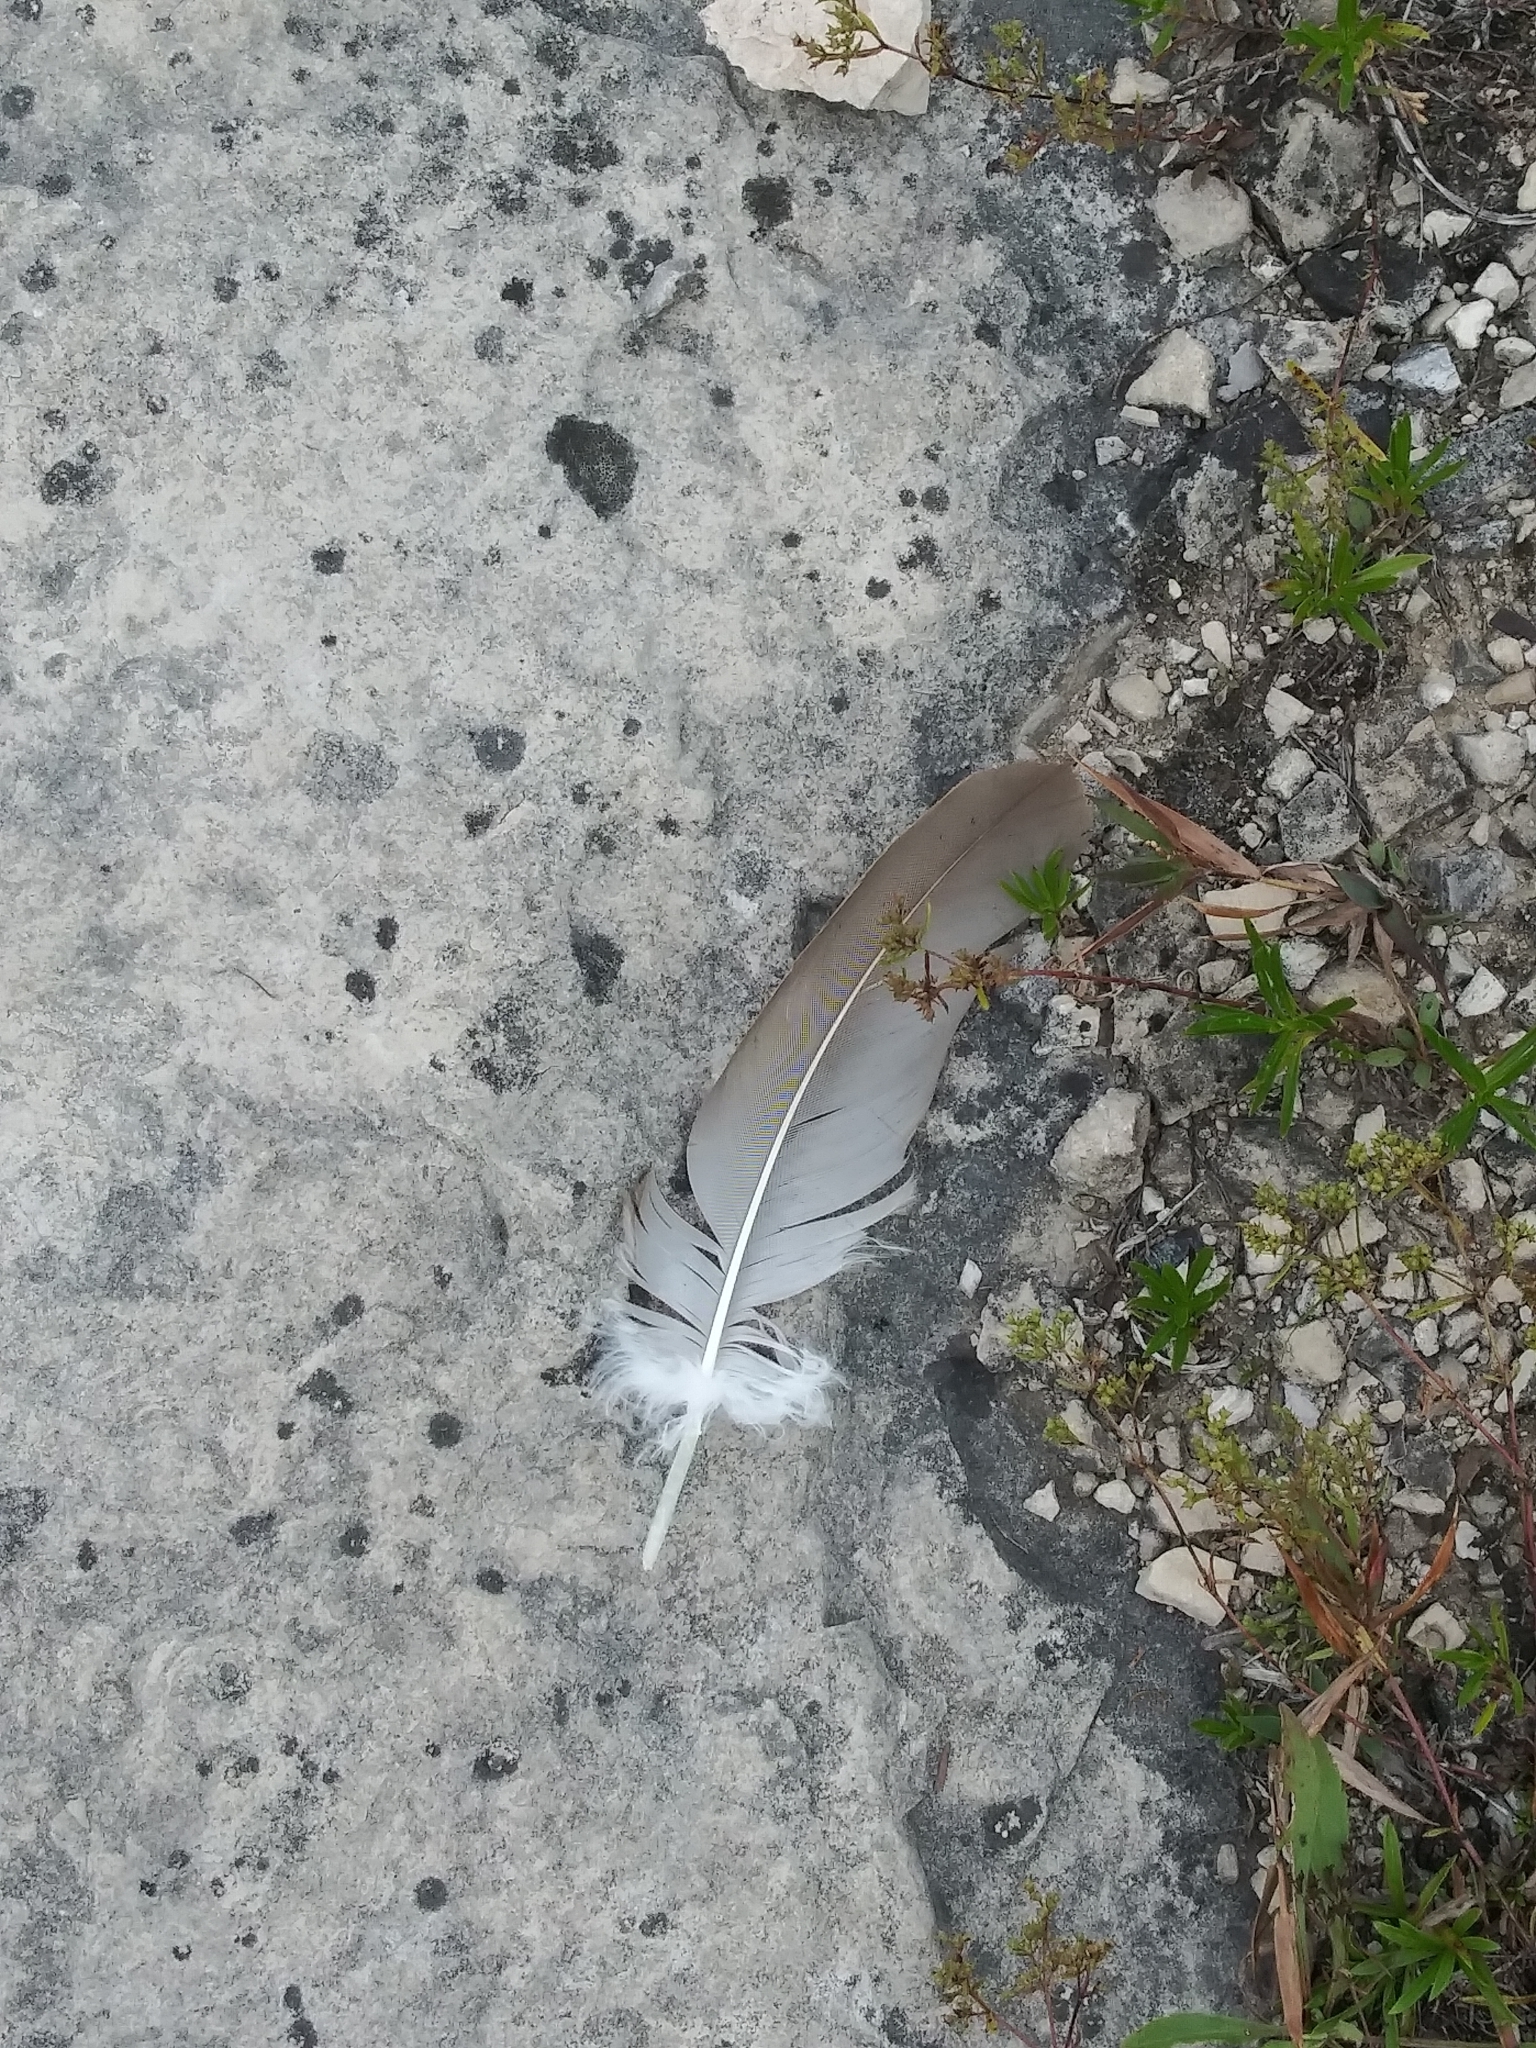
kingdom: Animalia
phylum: Chordata
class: Aves
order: Accipitriformes
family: Cathartidae
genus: Cathartes
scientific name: Cathartes aura
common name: Turkey vulture
